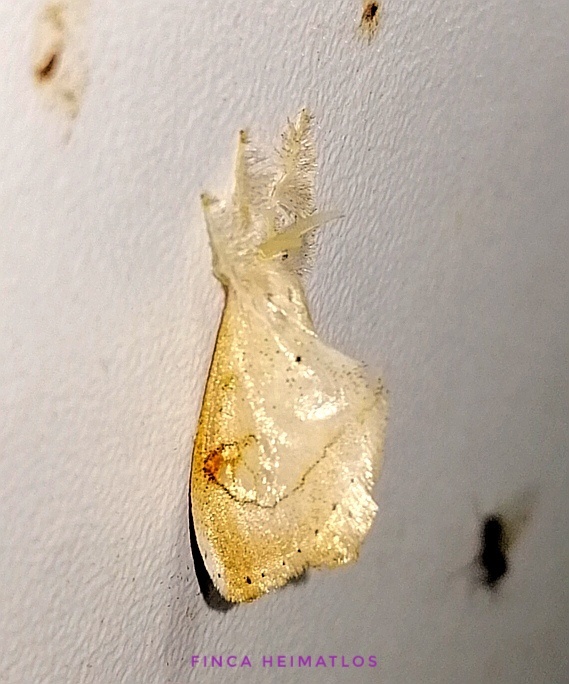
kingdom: Animalia
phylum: Arthropoda
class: Insecta
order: Lepidoptera
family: Dalceridae
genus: Paracraga
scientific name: Paracraga argentea
